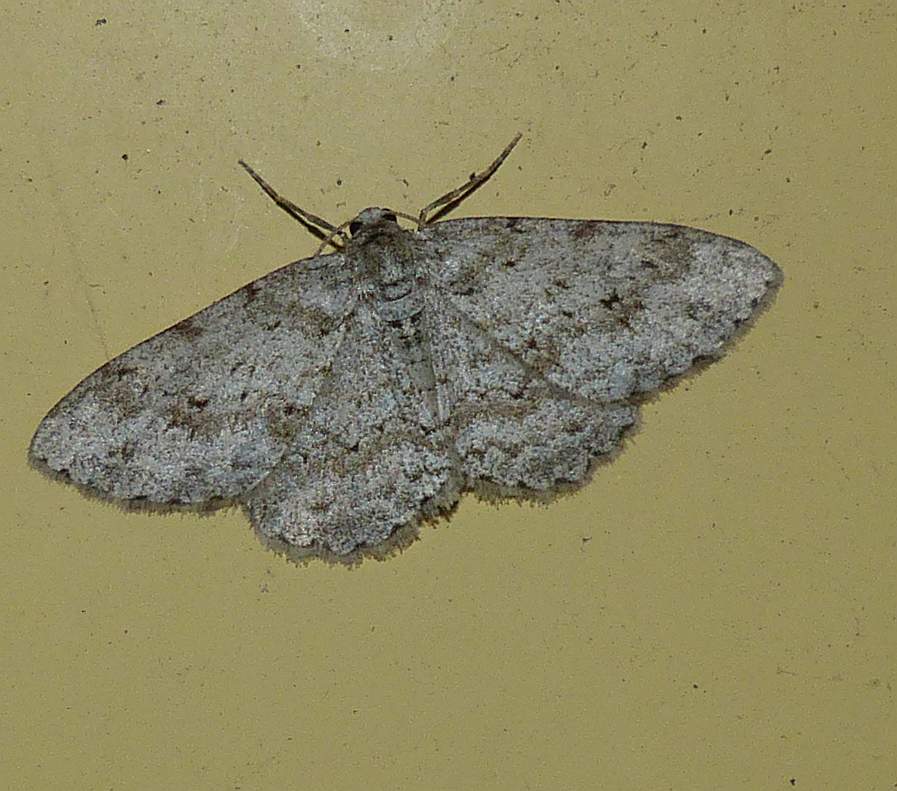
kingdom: Animalia
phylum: Arthropoda
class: Insecta
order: Lepidoptera
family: Geometridae
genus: Ectropis
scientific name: Ectropis crepuscularia
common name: Engrailed
